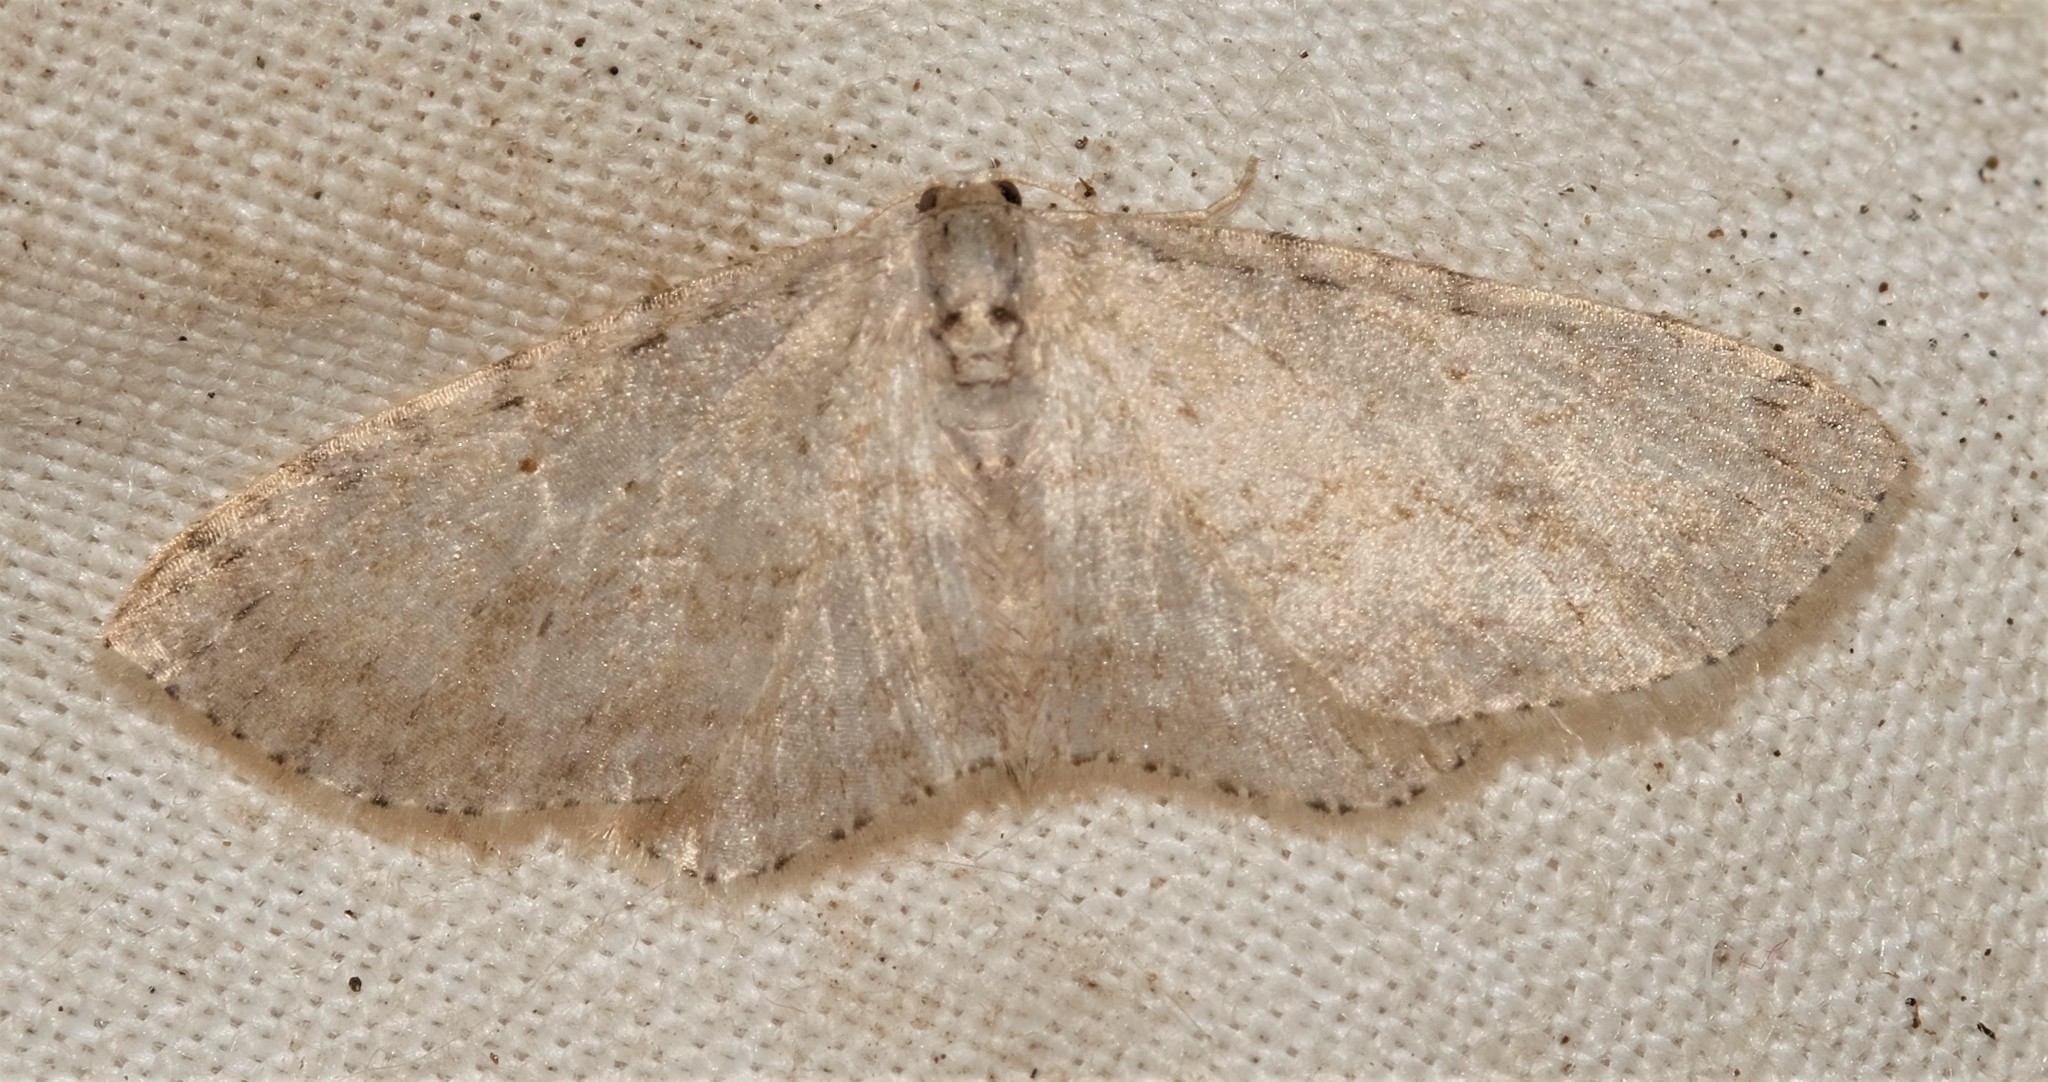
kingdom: Animalia
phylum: Arthropoda
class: Insecta
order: Lepidoptera
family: Geometridae
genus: Poecilasthena
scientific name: Poecilasthena scoliota
